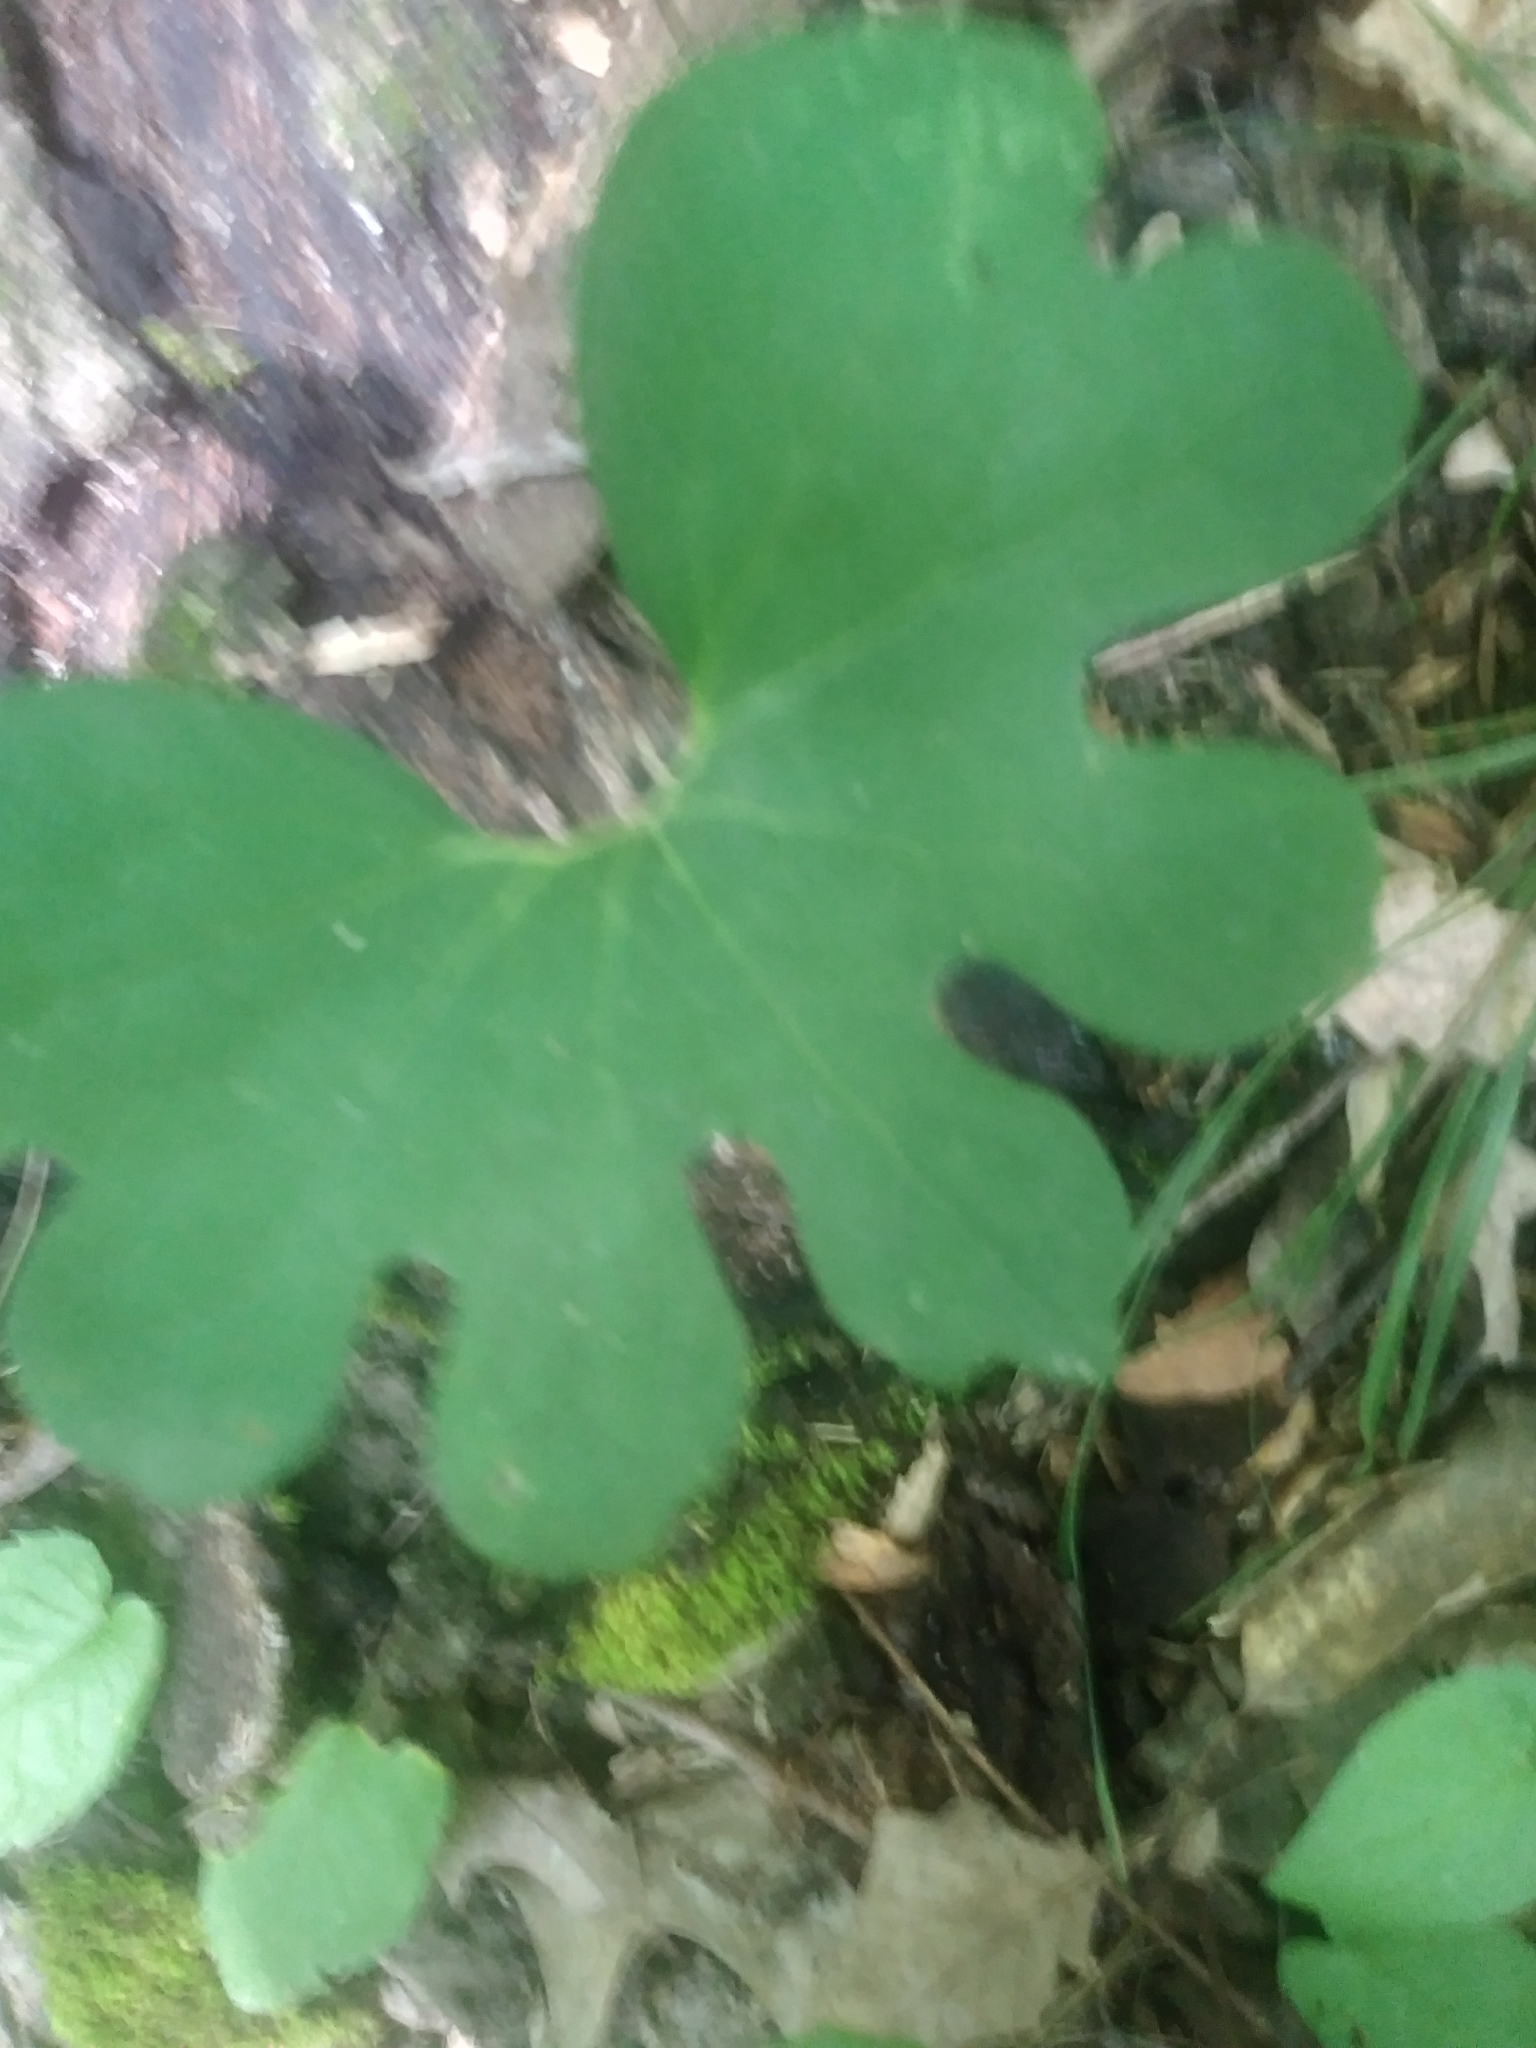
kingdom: Plantae
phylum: Tracheophyta
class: Magnoliopsida
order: Ranunculales
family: Papaveraceae
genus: Sanguinaria
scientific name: Sanguinaria canadensis
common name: Bloodroot
